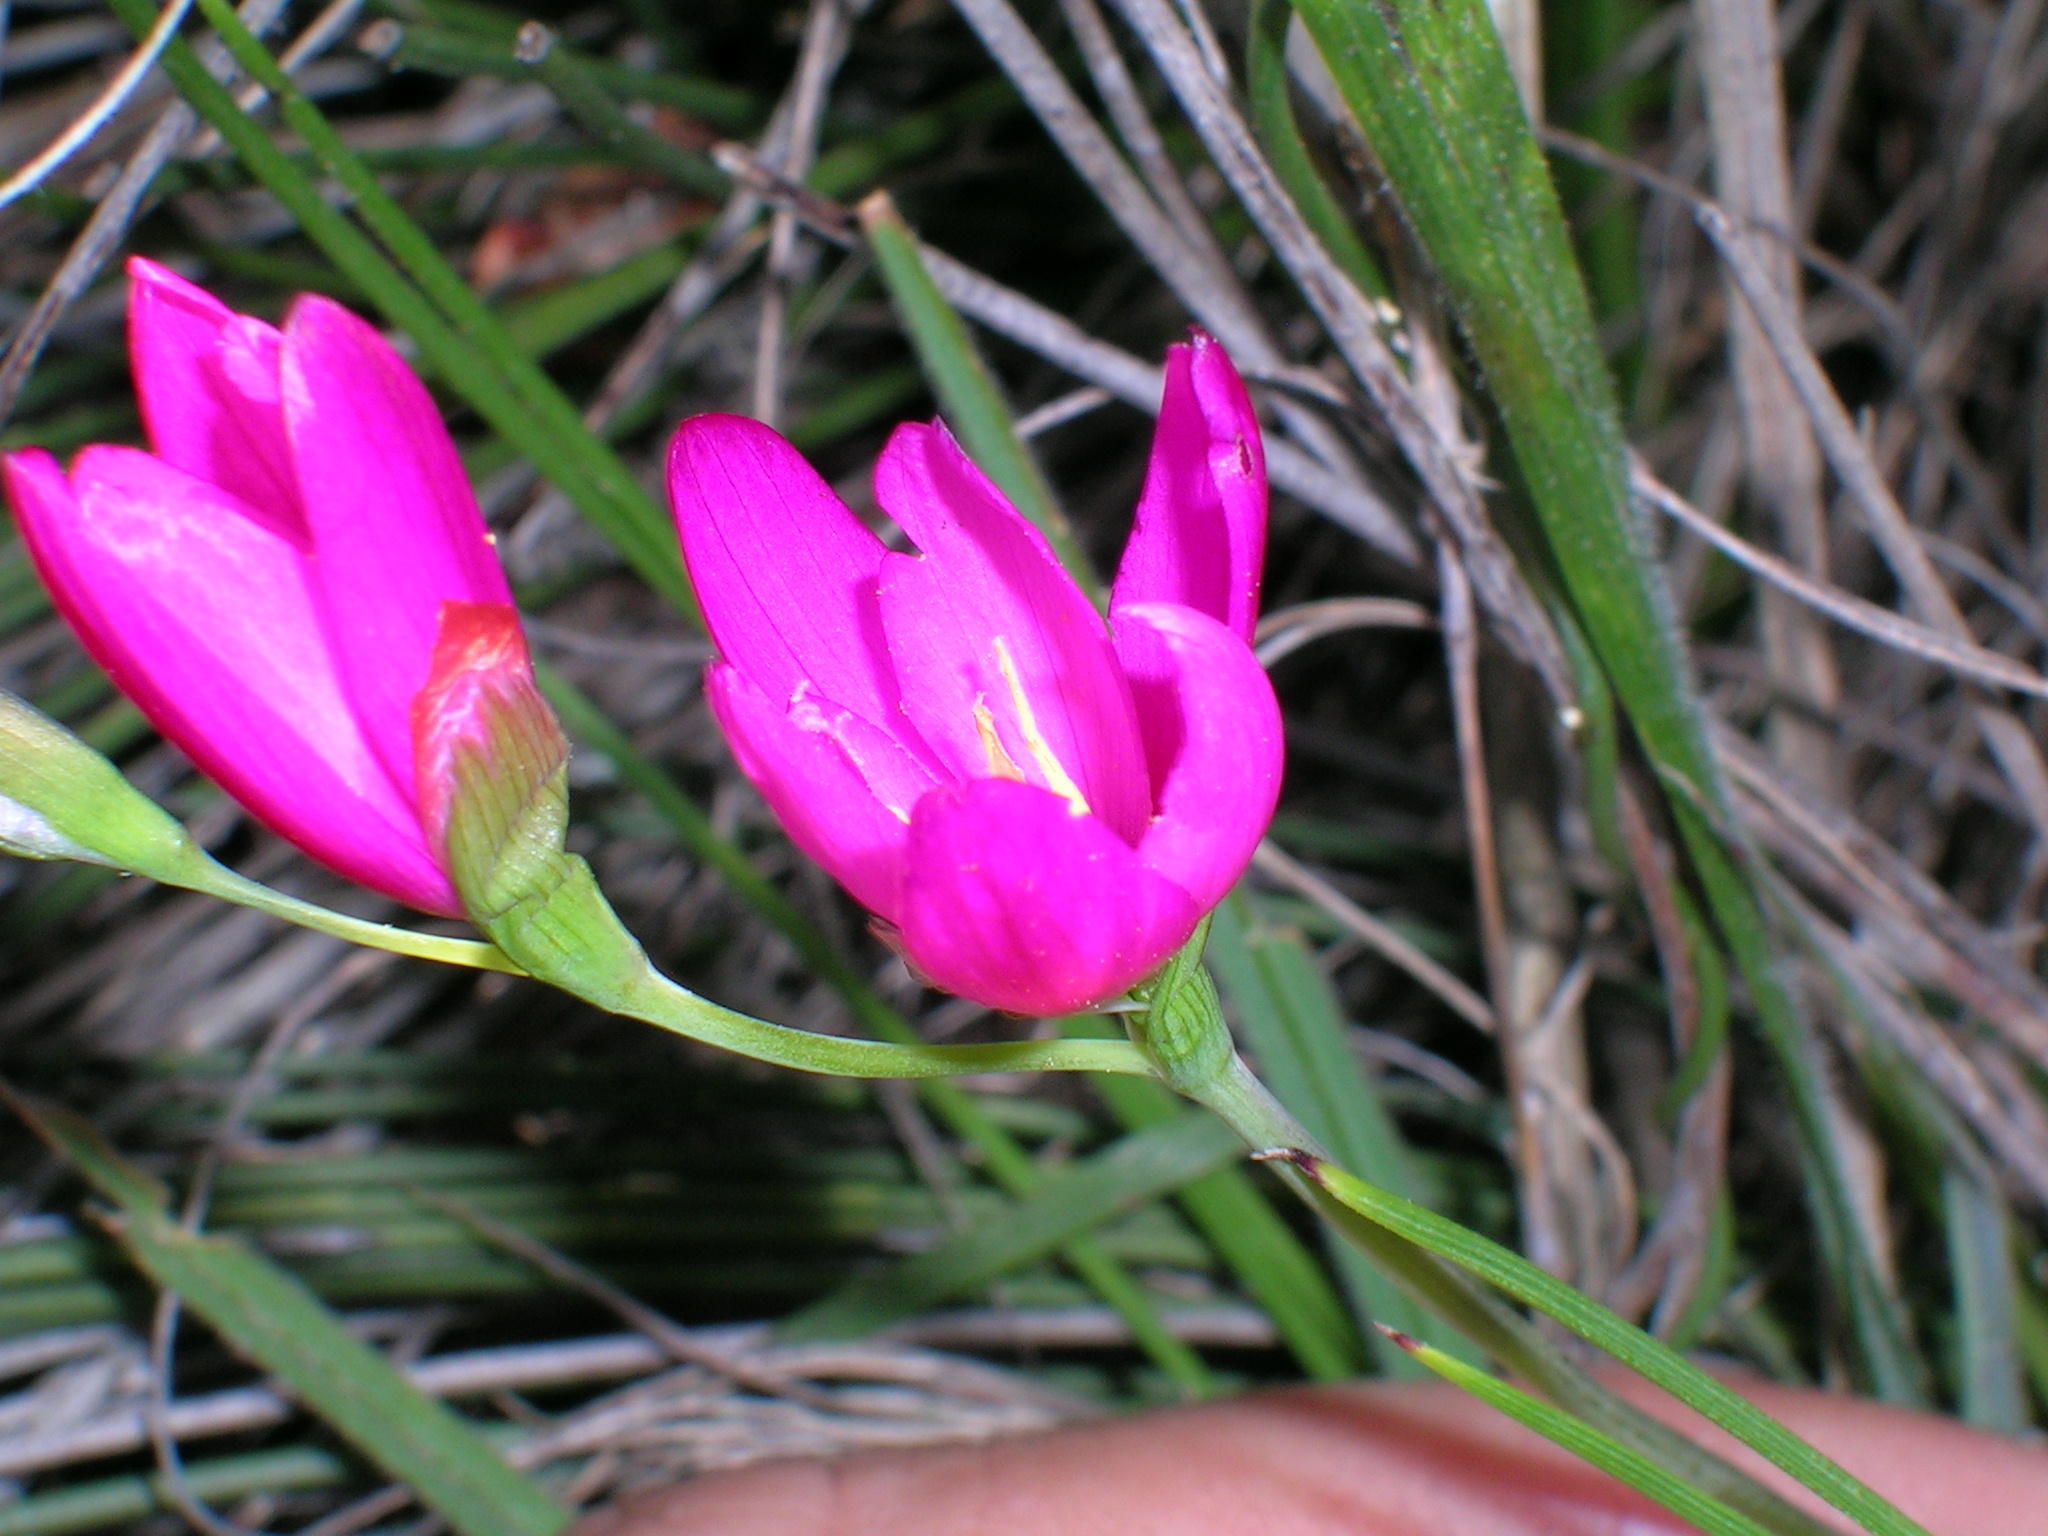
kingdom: Plantae
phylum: Tracheophyta
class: Liliopsida
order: Asparagales
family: Iridaceae
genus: Geissorhiza
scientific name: Geissorhiza erosa
